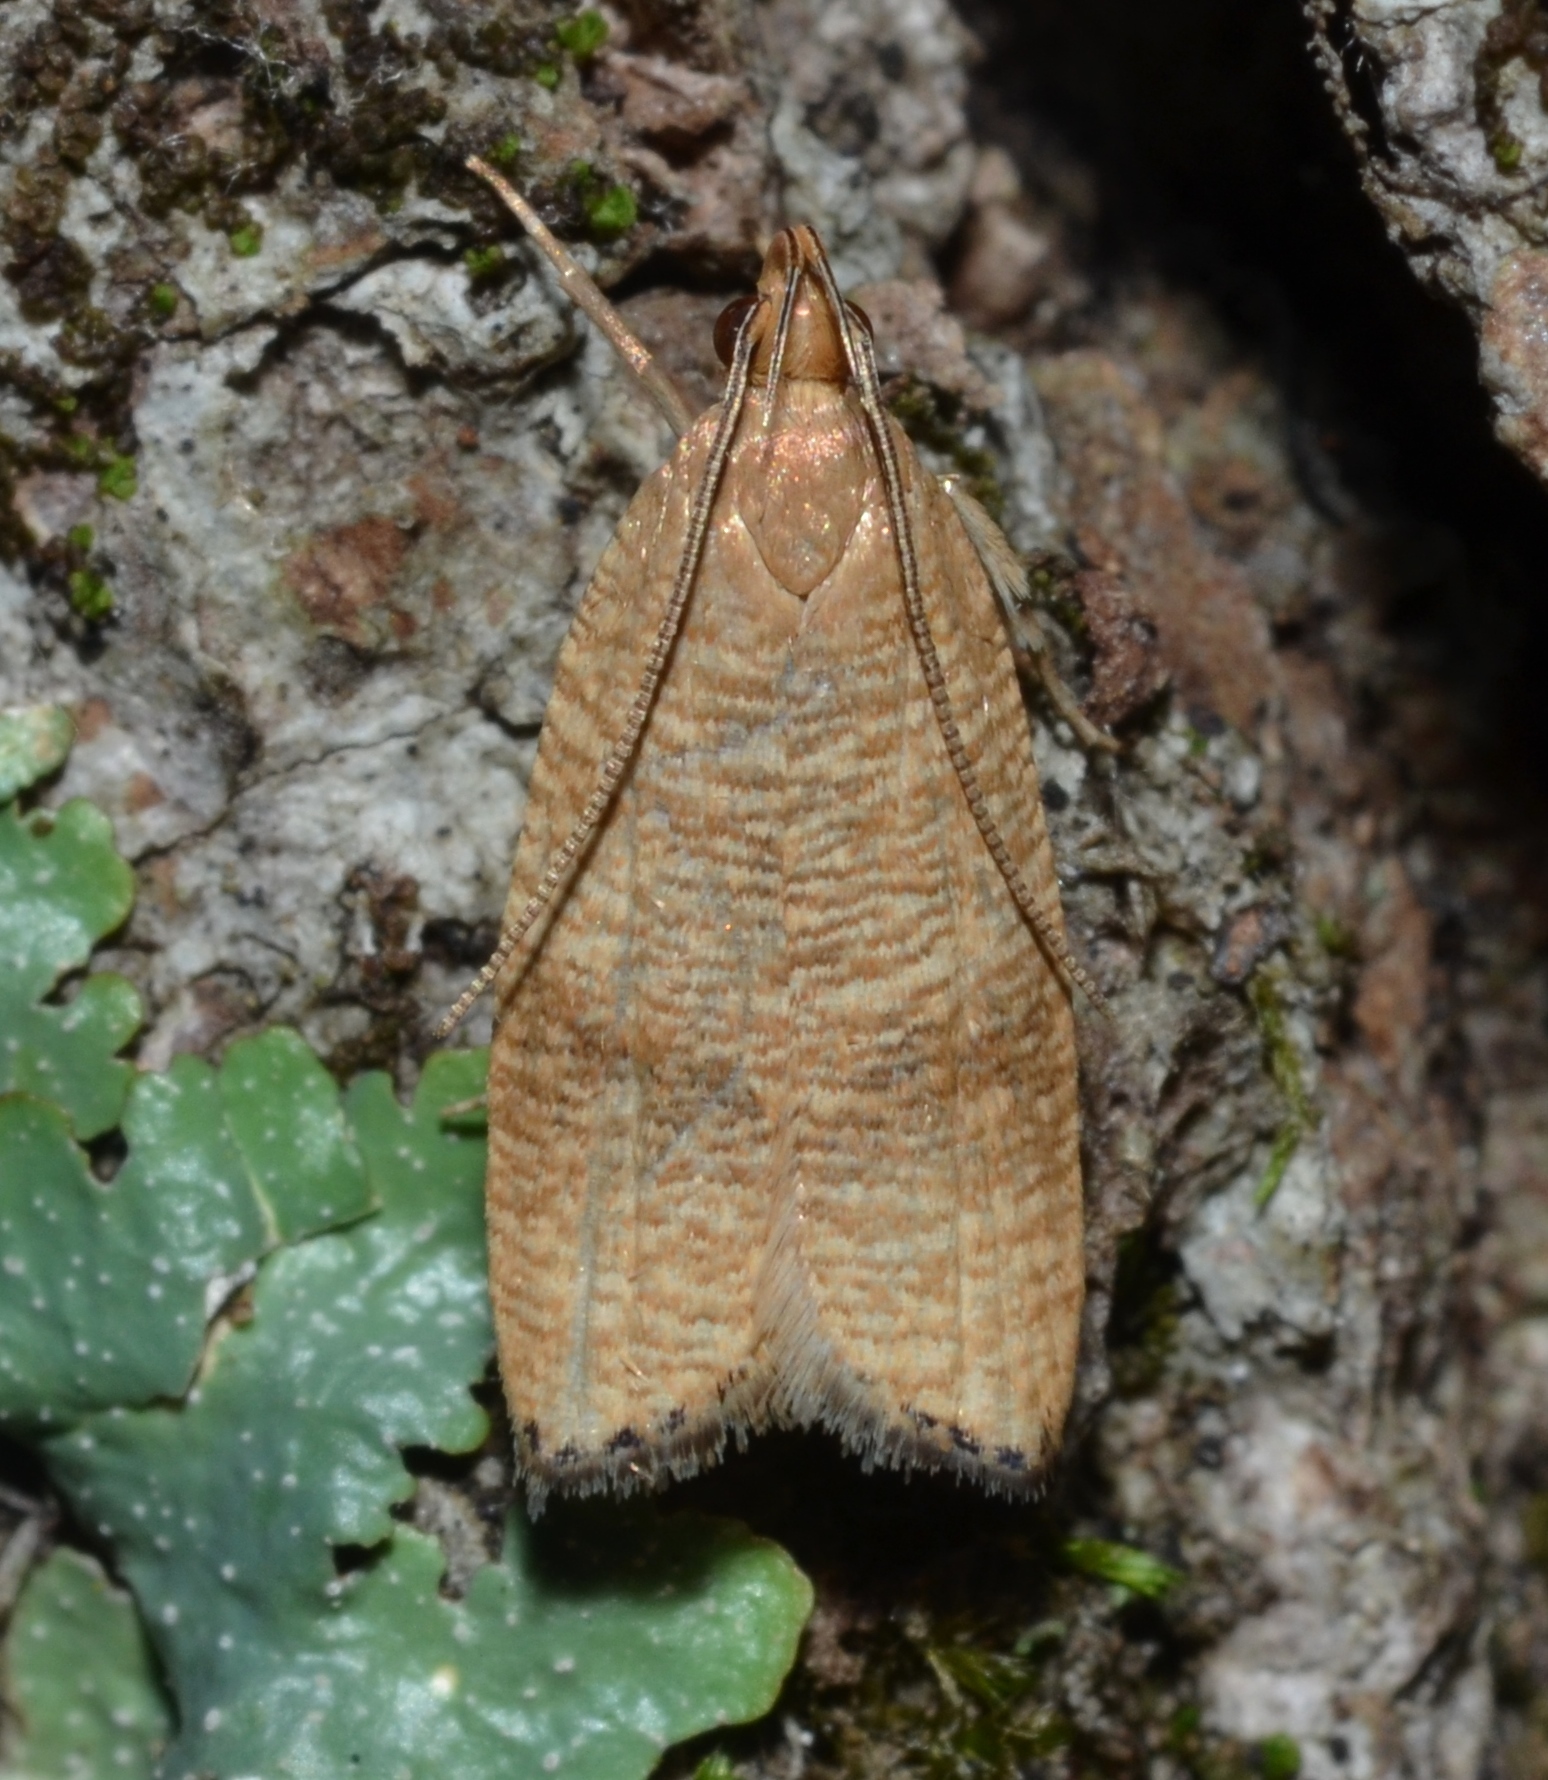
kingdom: Animalia
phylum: Arthropoda
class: Insecta
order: Lepidoptera
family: Depressariidae
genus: Psilocorsis
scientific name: Psilocorsis cryptolechiella
